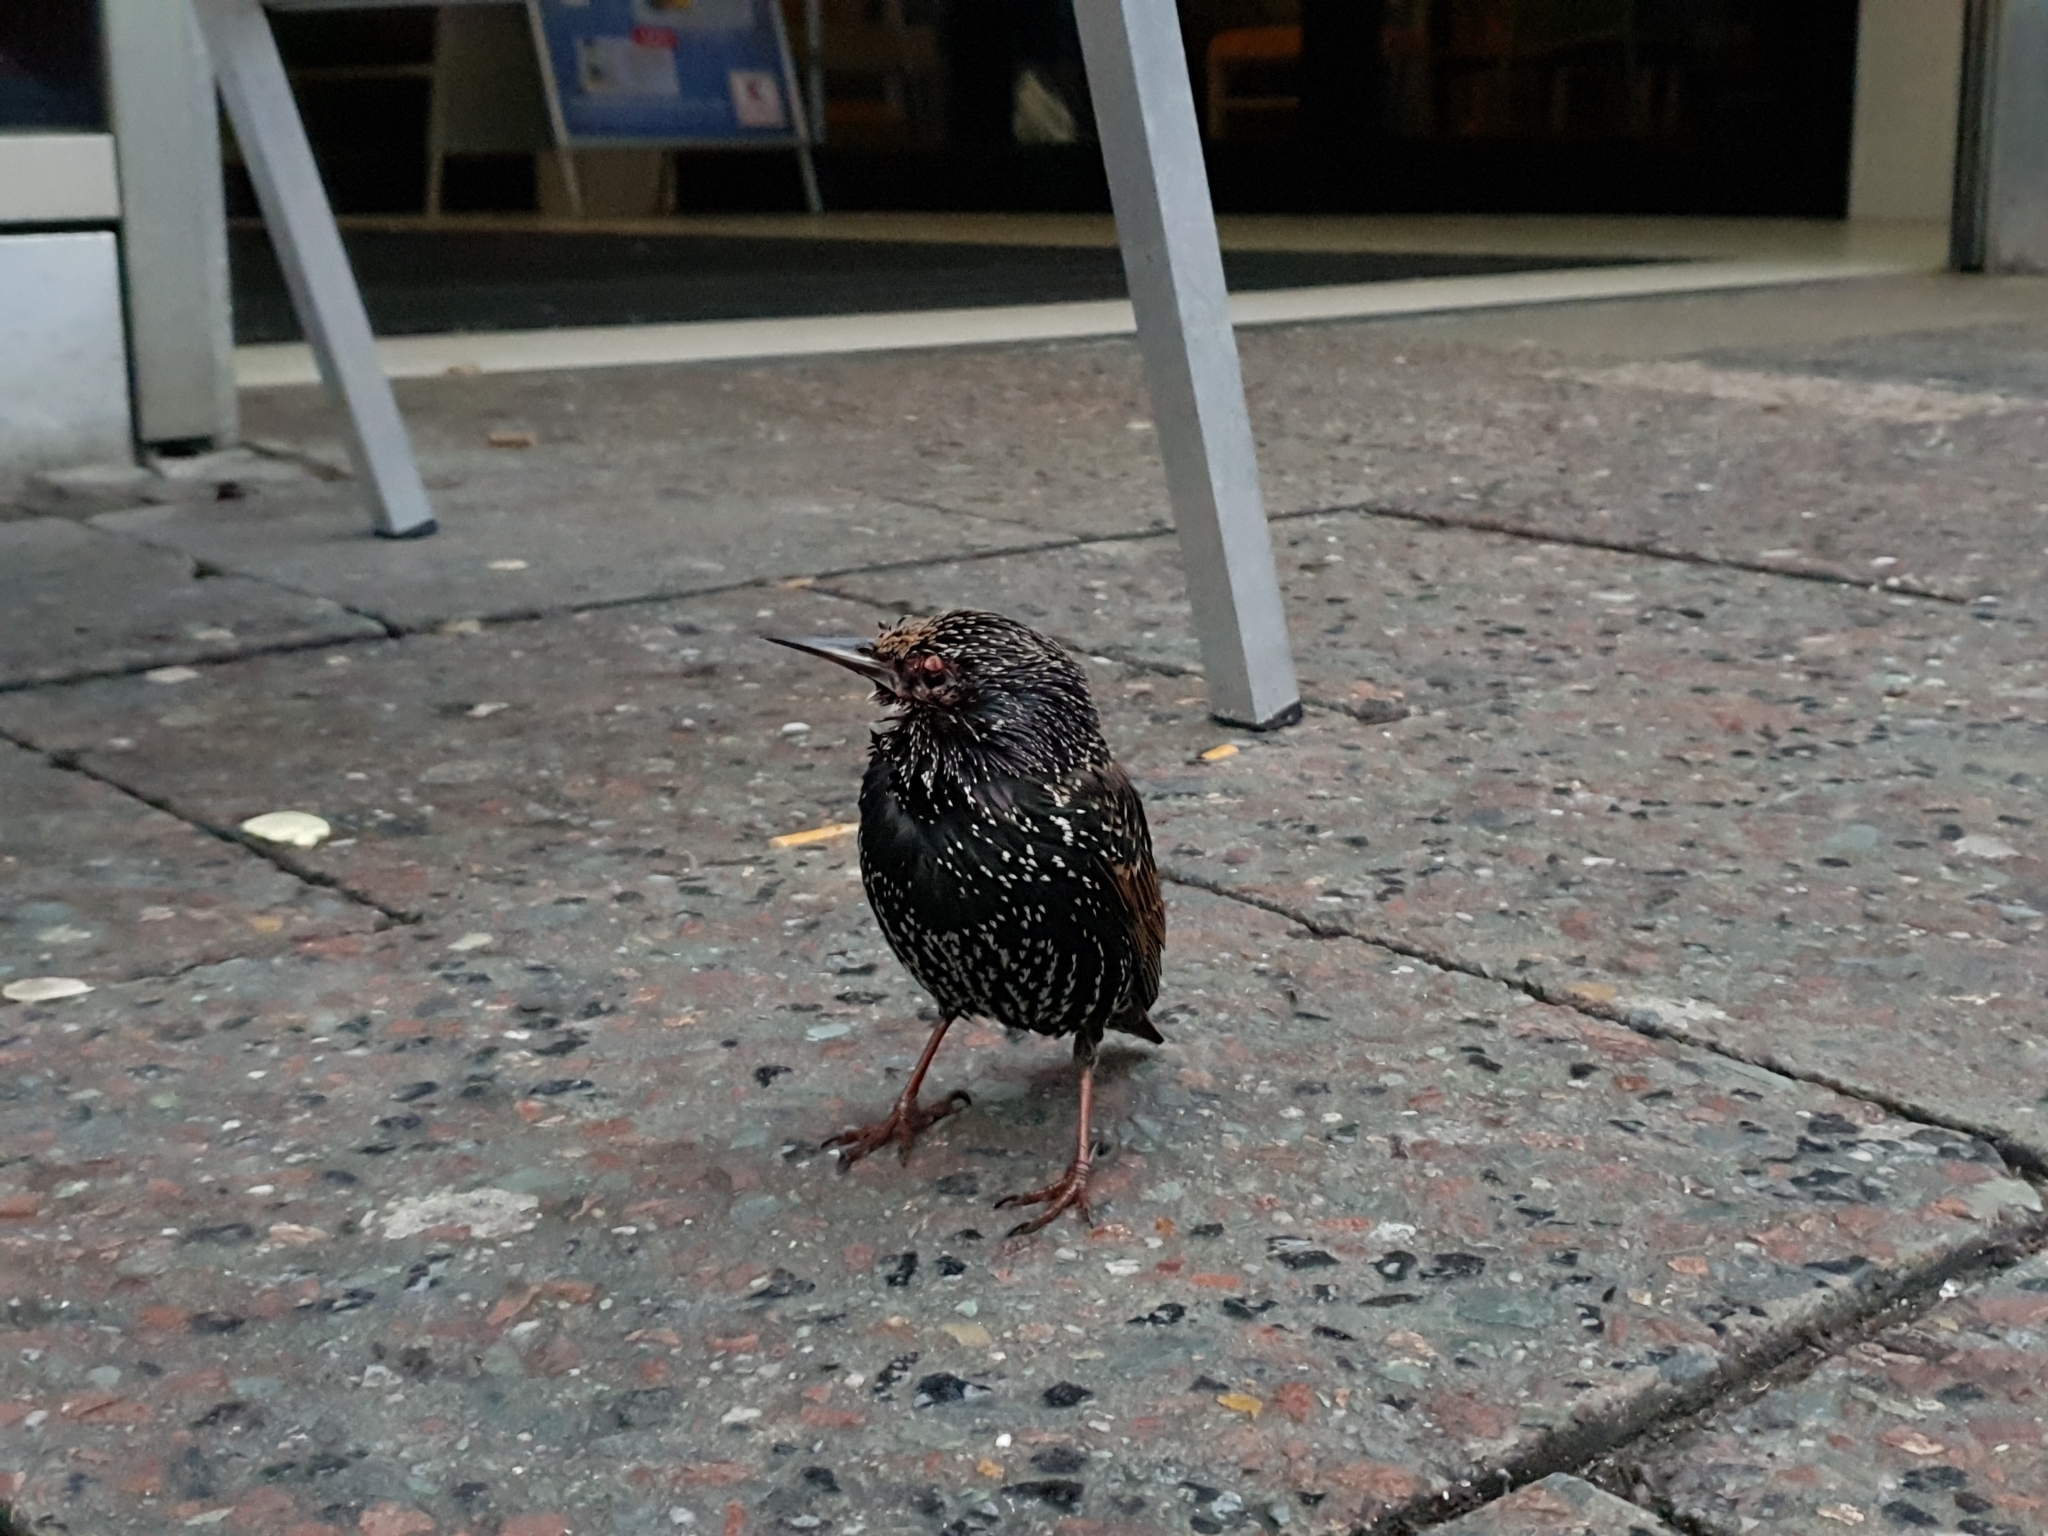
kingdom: Animalia
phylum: Chordata
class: Aves
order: Passeriformes
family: Sturnidae
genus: Sturnus
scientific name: Sturnus vulgaris
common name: Common starling
